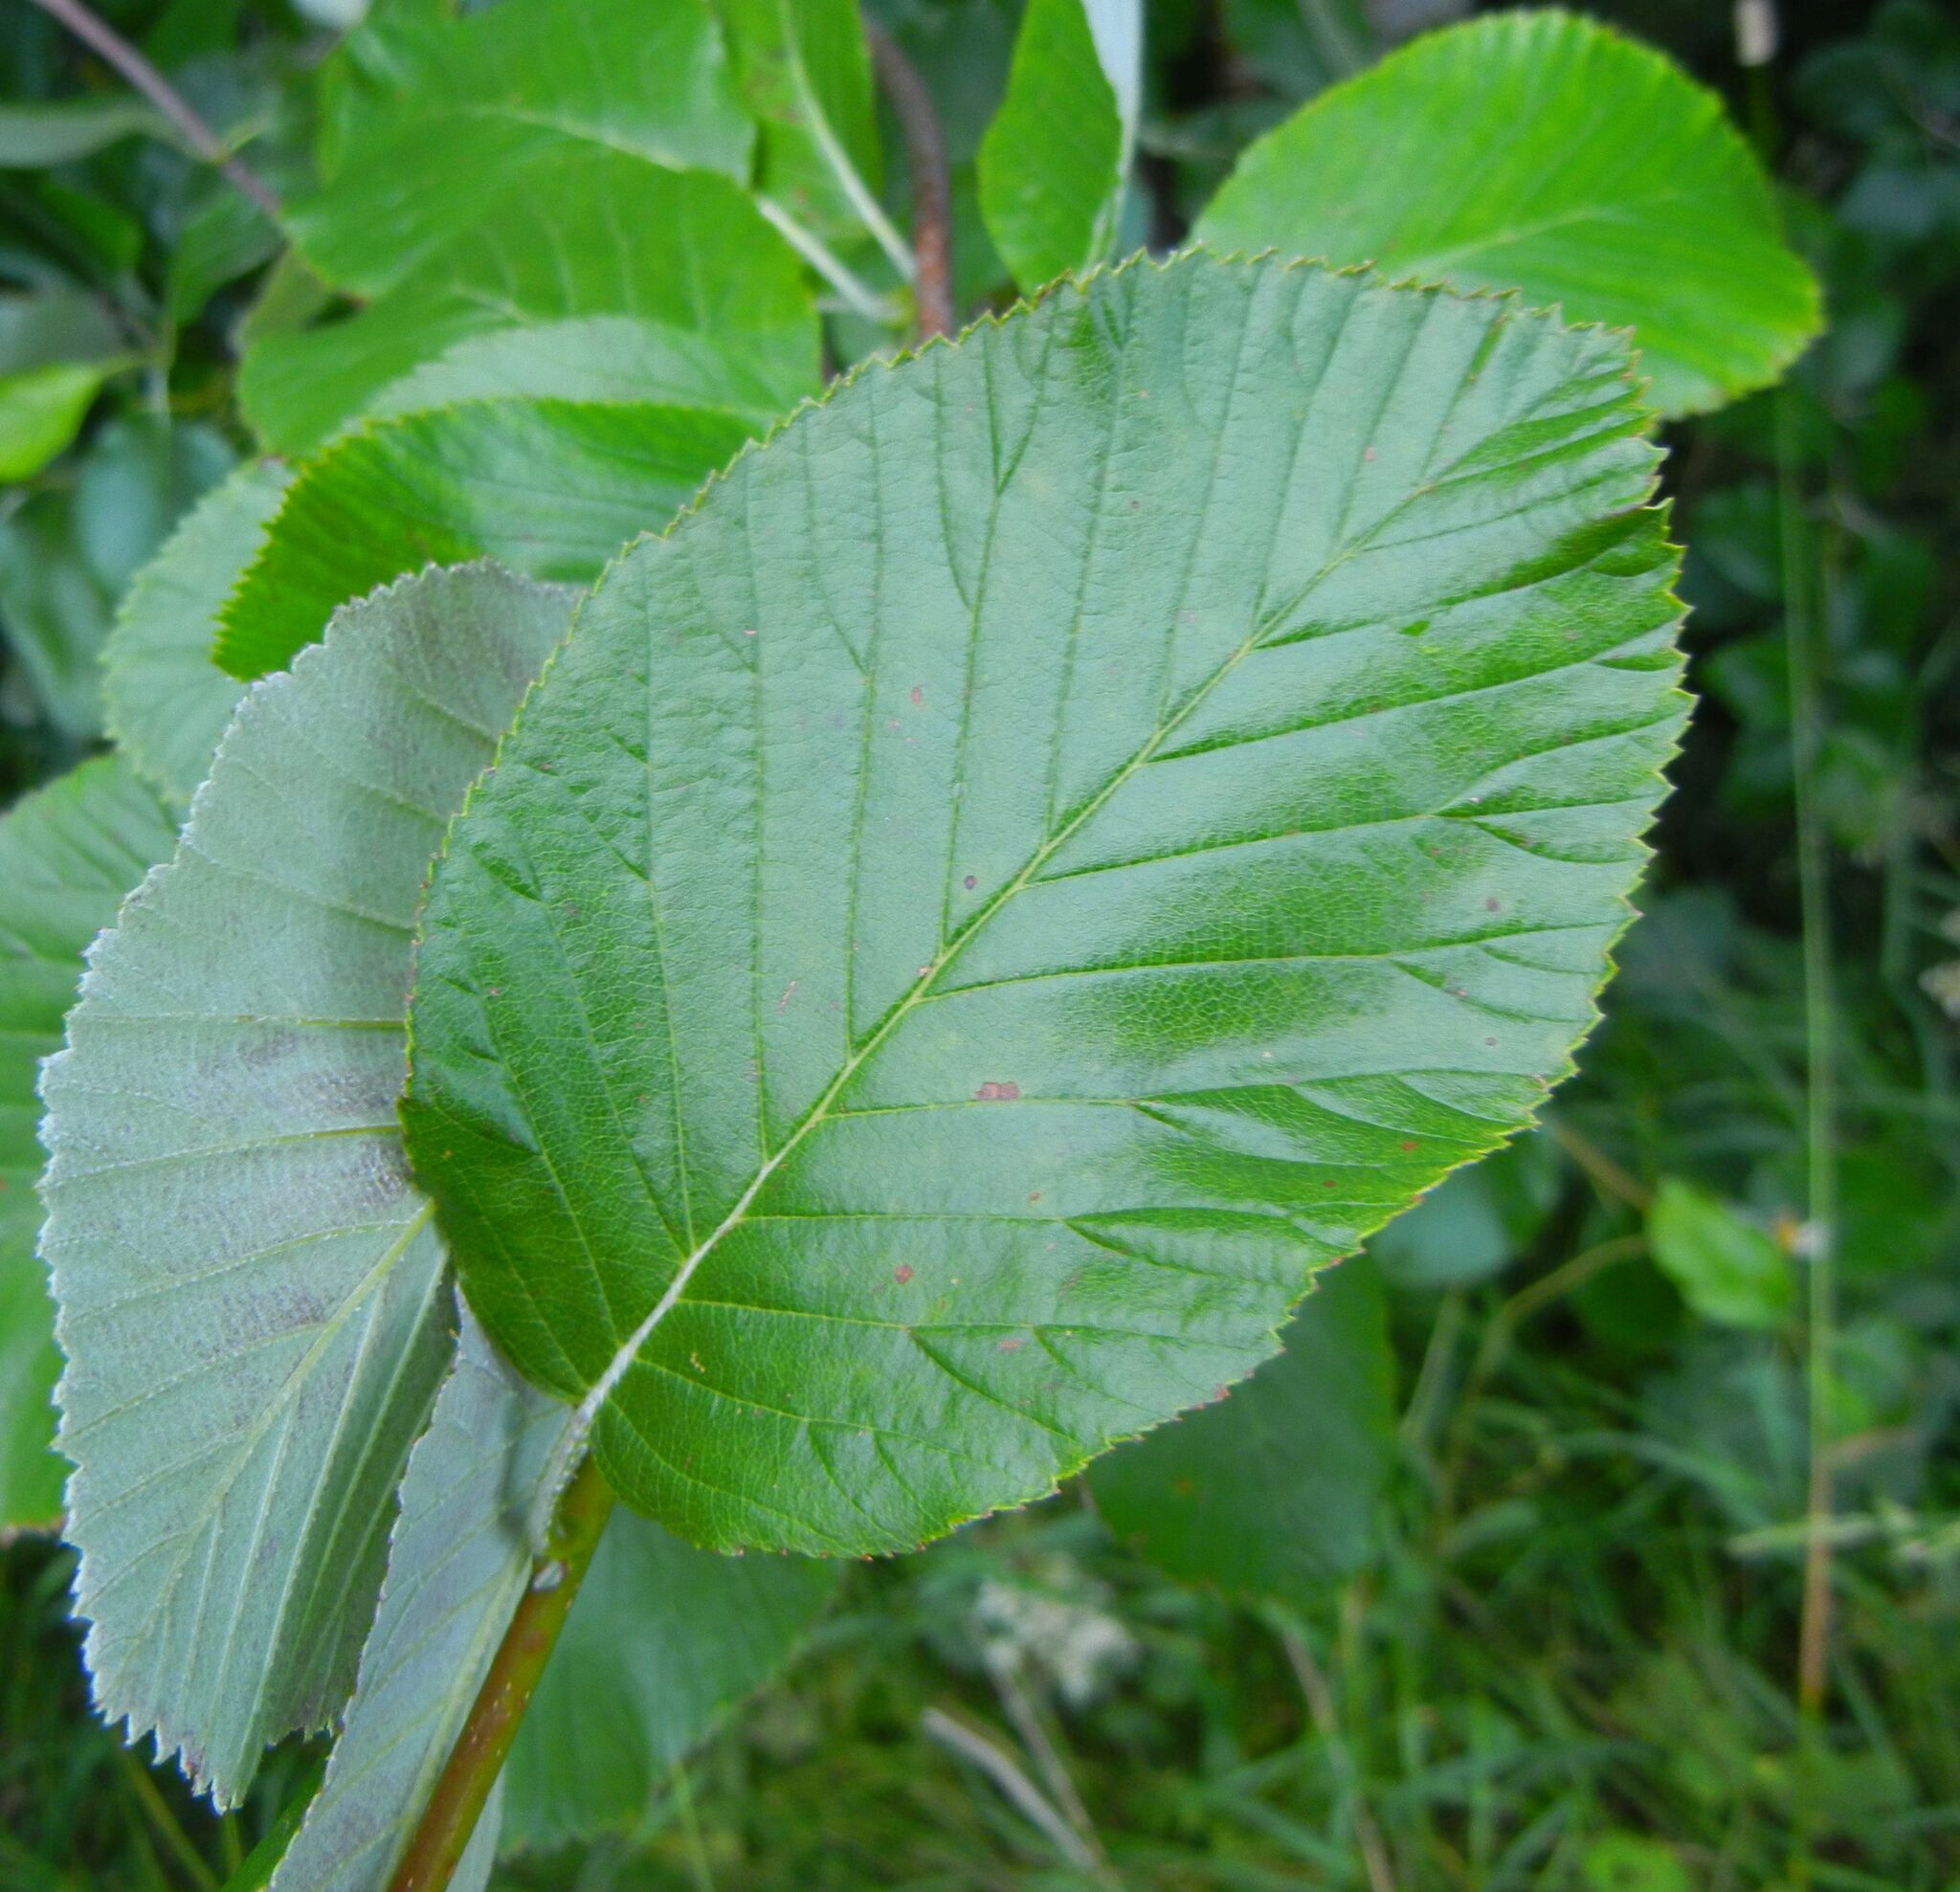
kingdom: Plantae
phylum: Tracheophyta
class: Magnoliopsida
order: Rosales
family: Rosaceae
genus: Aria
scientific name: Aria edulis
